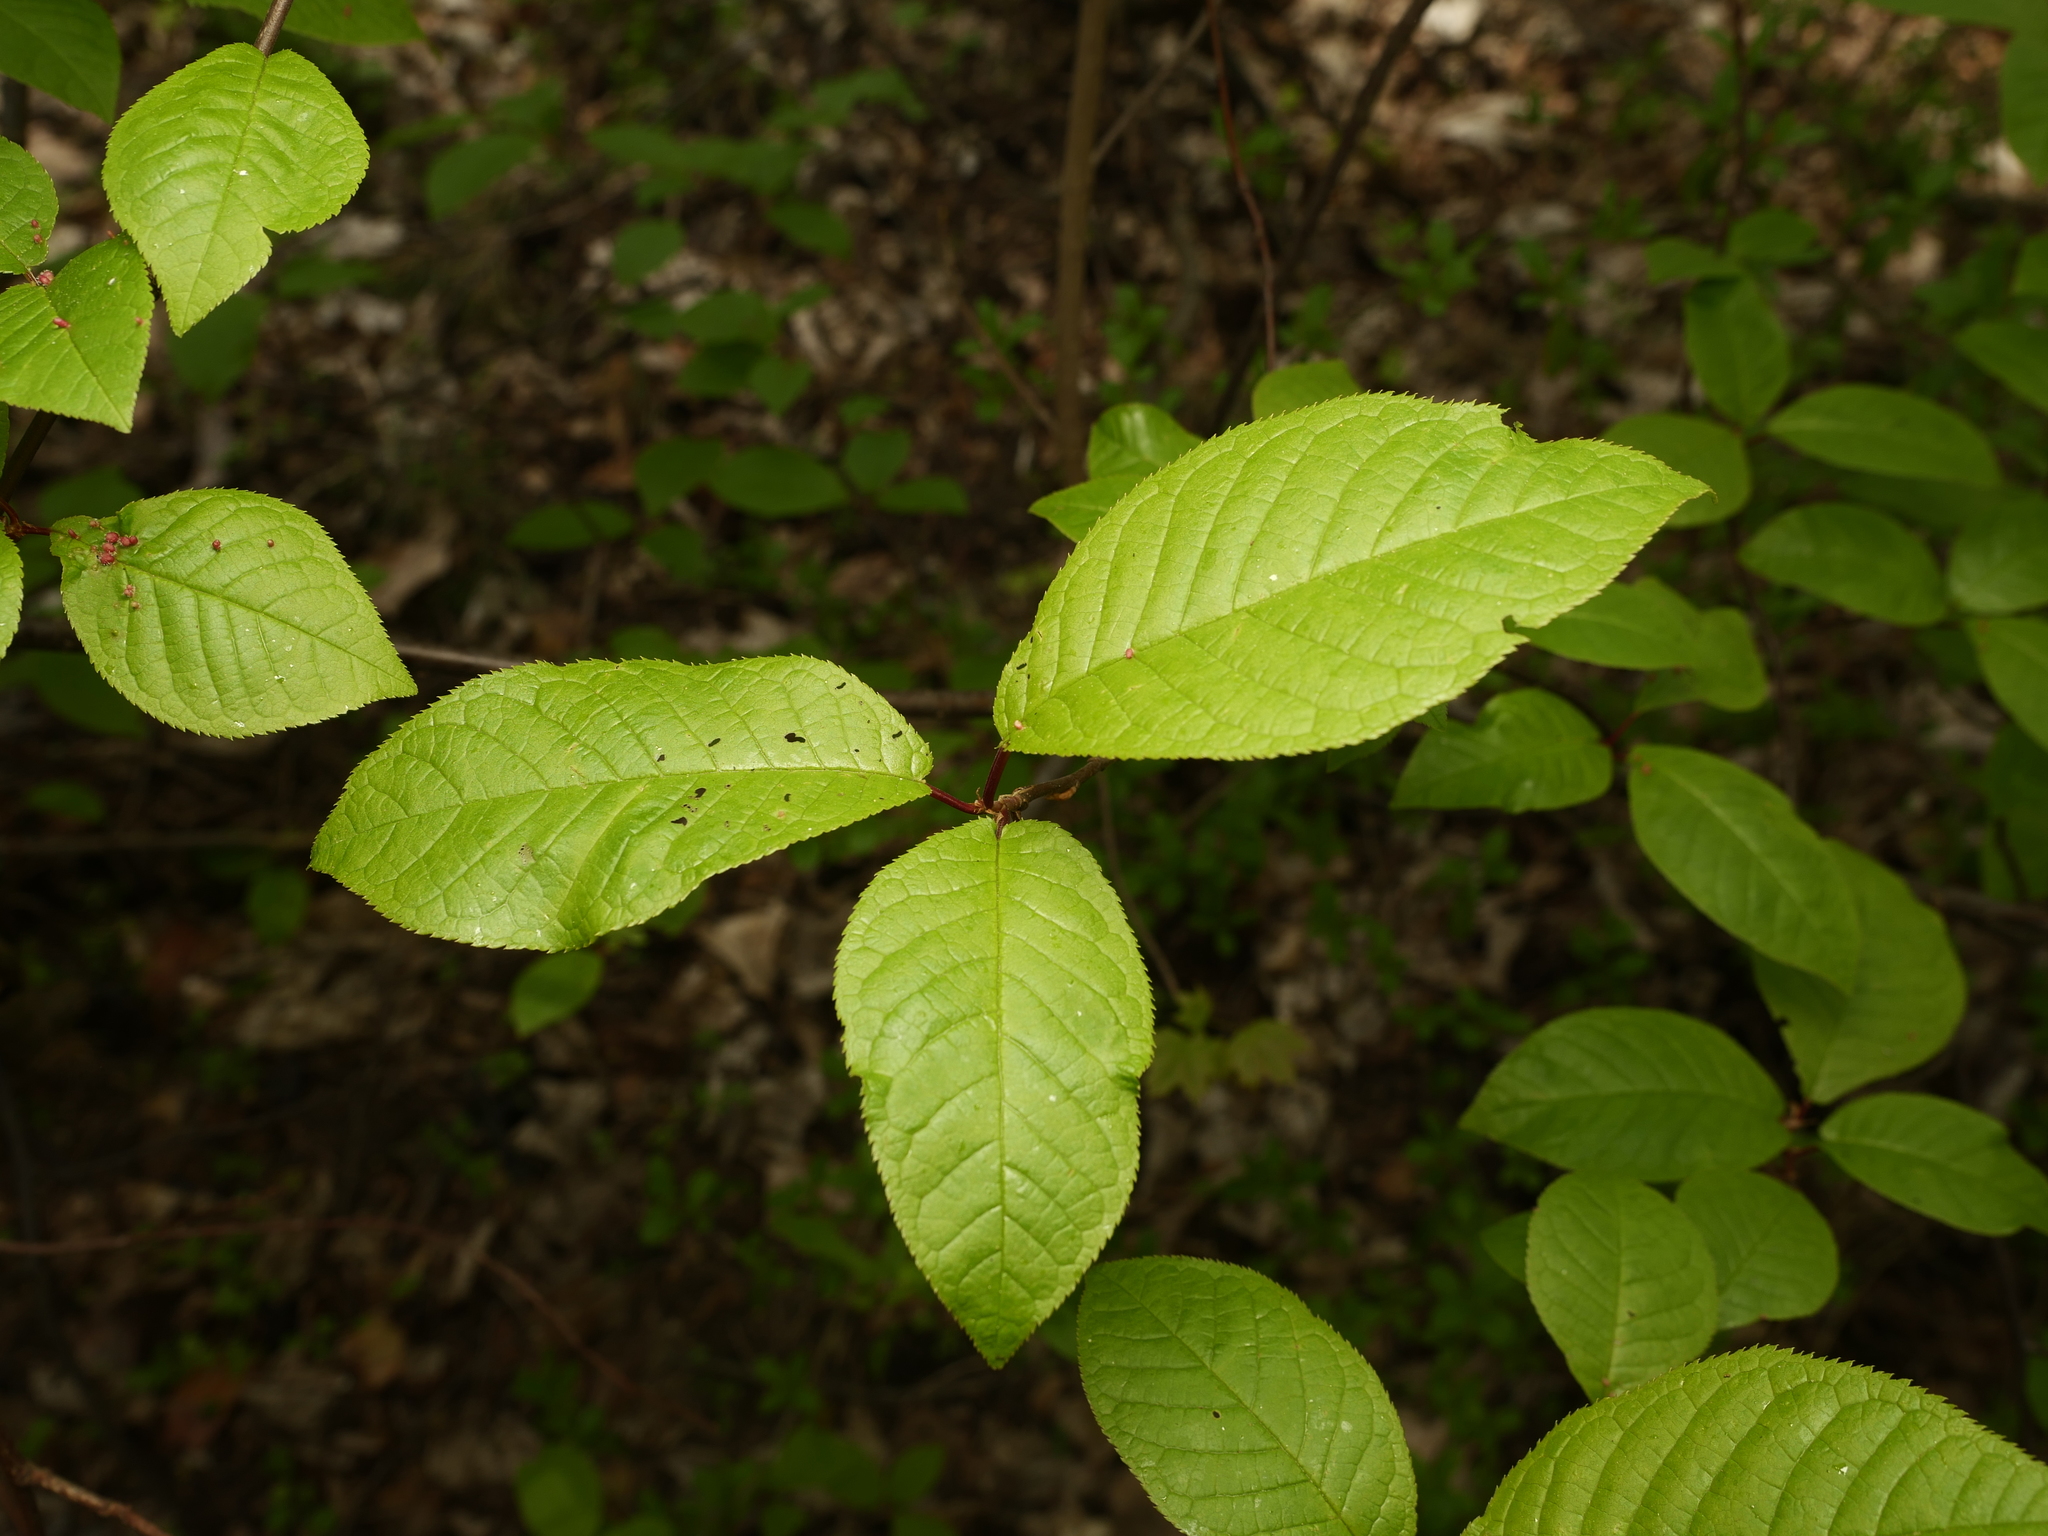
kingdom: Plantae
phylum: Tracheophyta
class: Magnoliopsida
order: Rosales
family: Rosaceae
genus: Prunus
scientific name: Prunus padus
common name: Bird cherry
